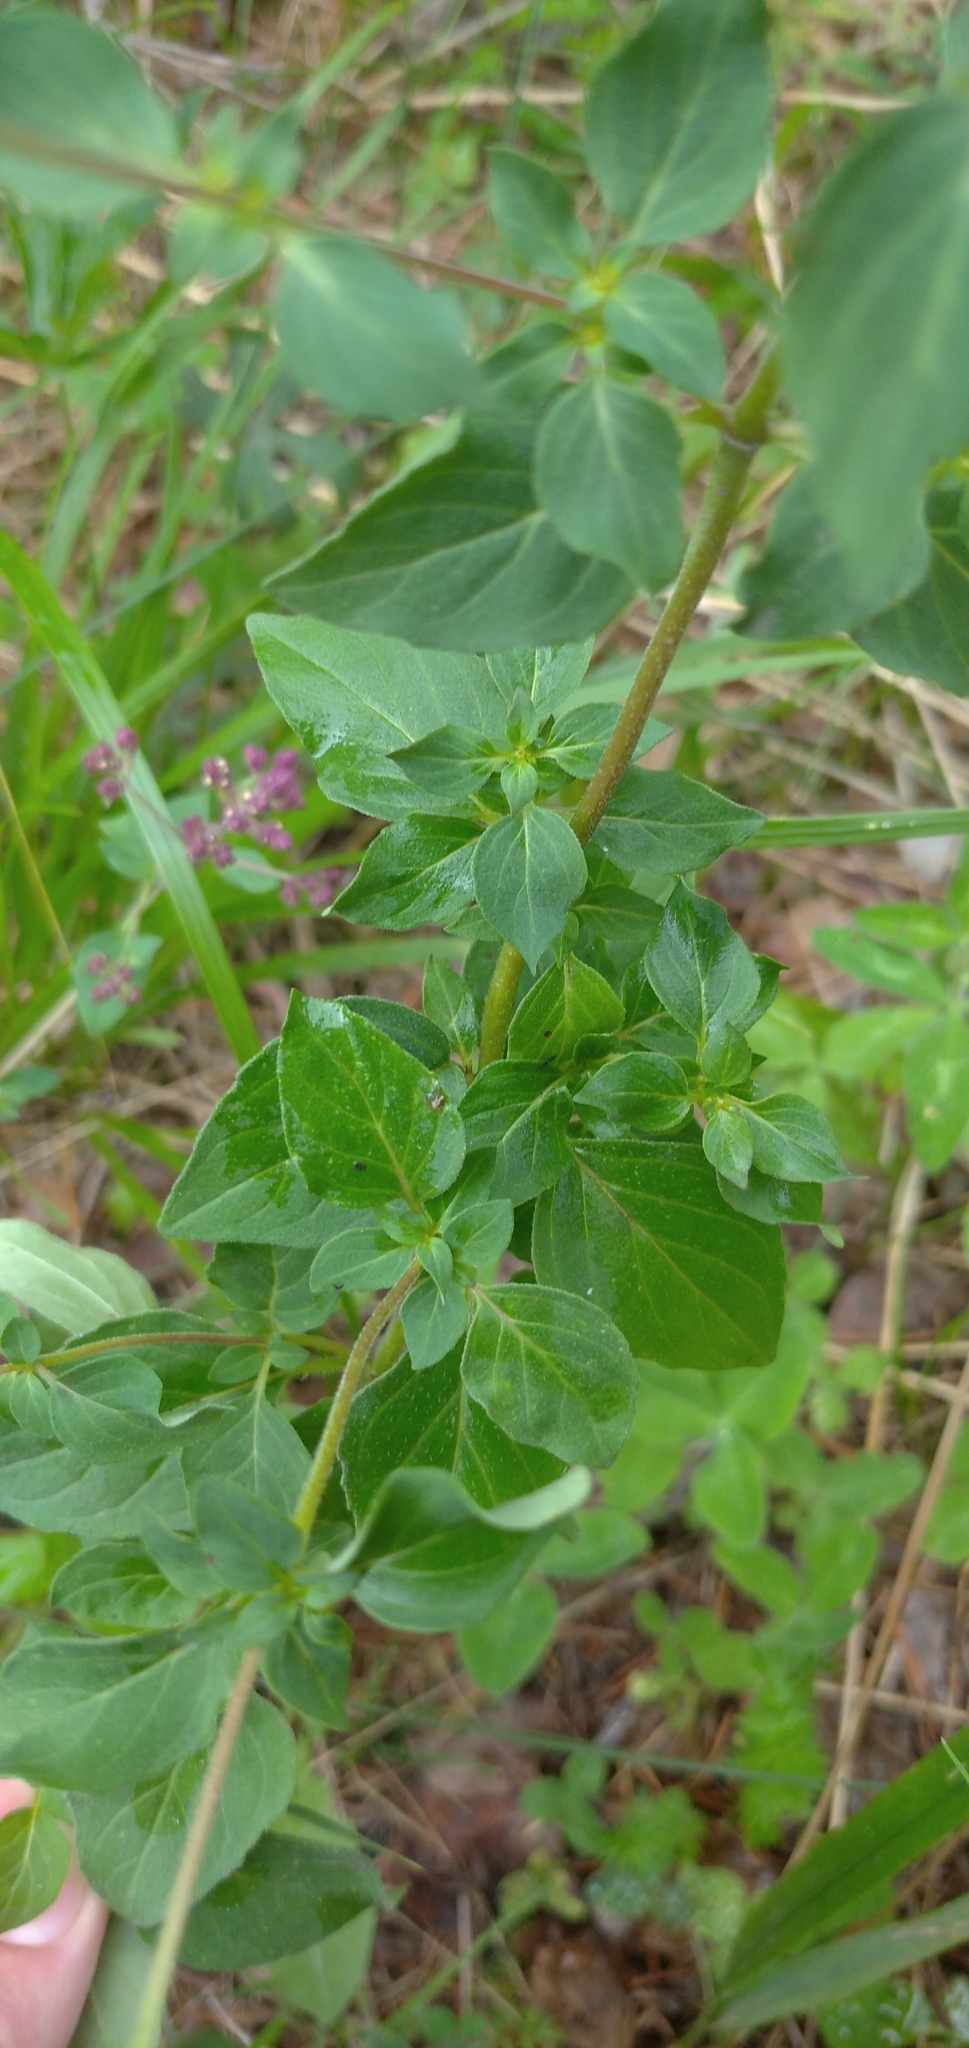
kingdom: Plantae
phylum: Tracheophyta
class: Magnoliopsida
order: Lamiales
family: Lamiaceae
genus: Origanum
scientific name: Origanum vulgare
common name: Wild marjoram
